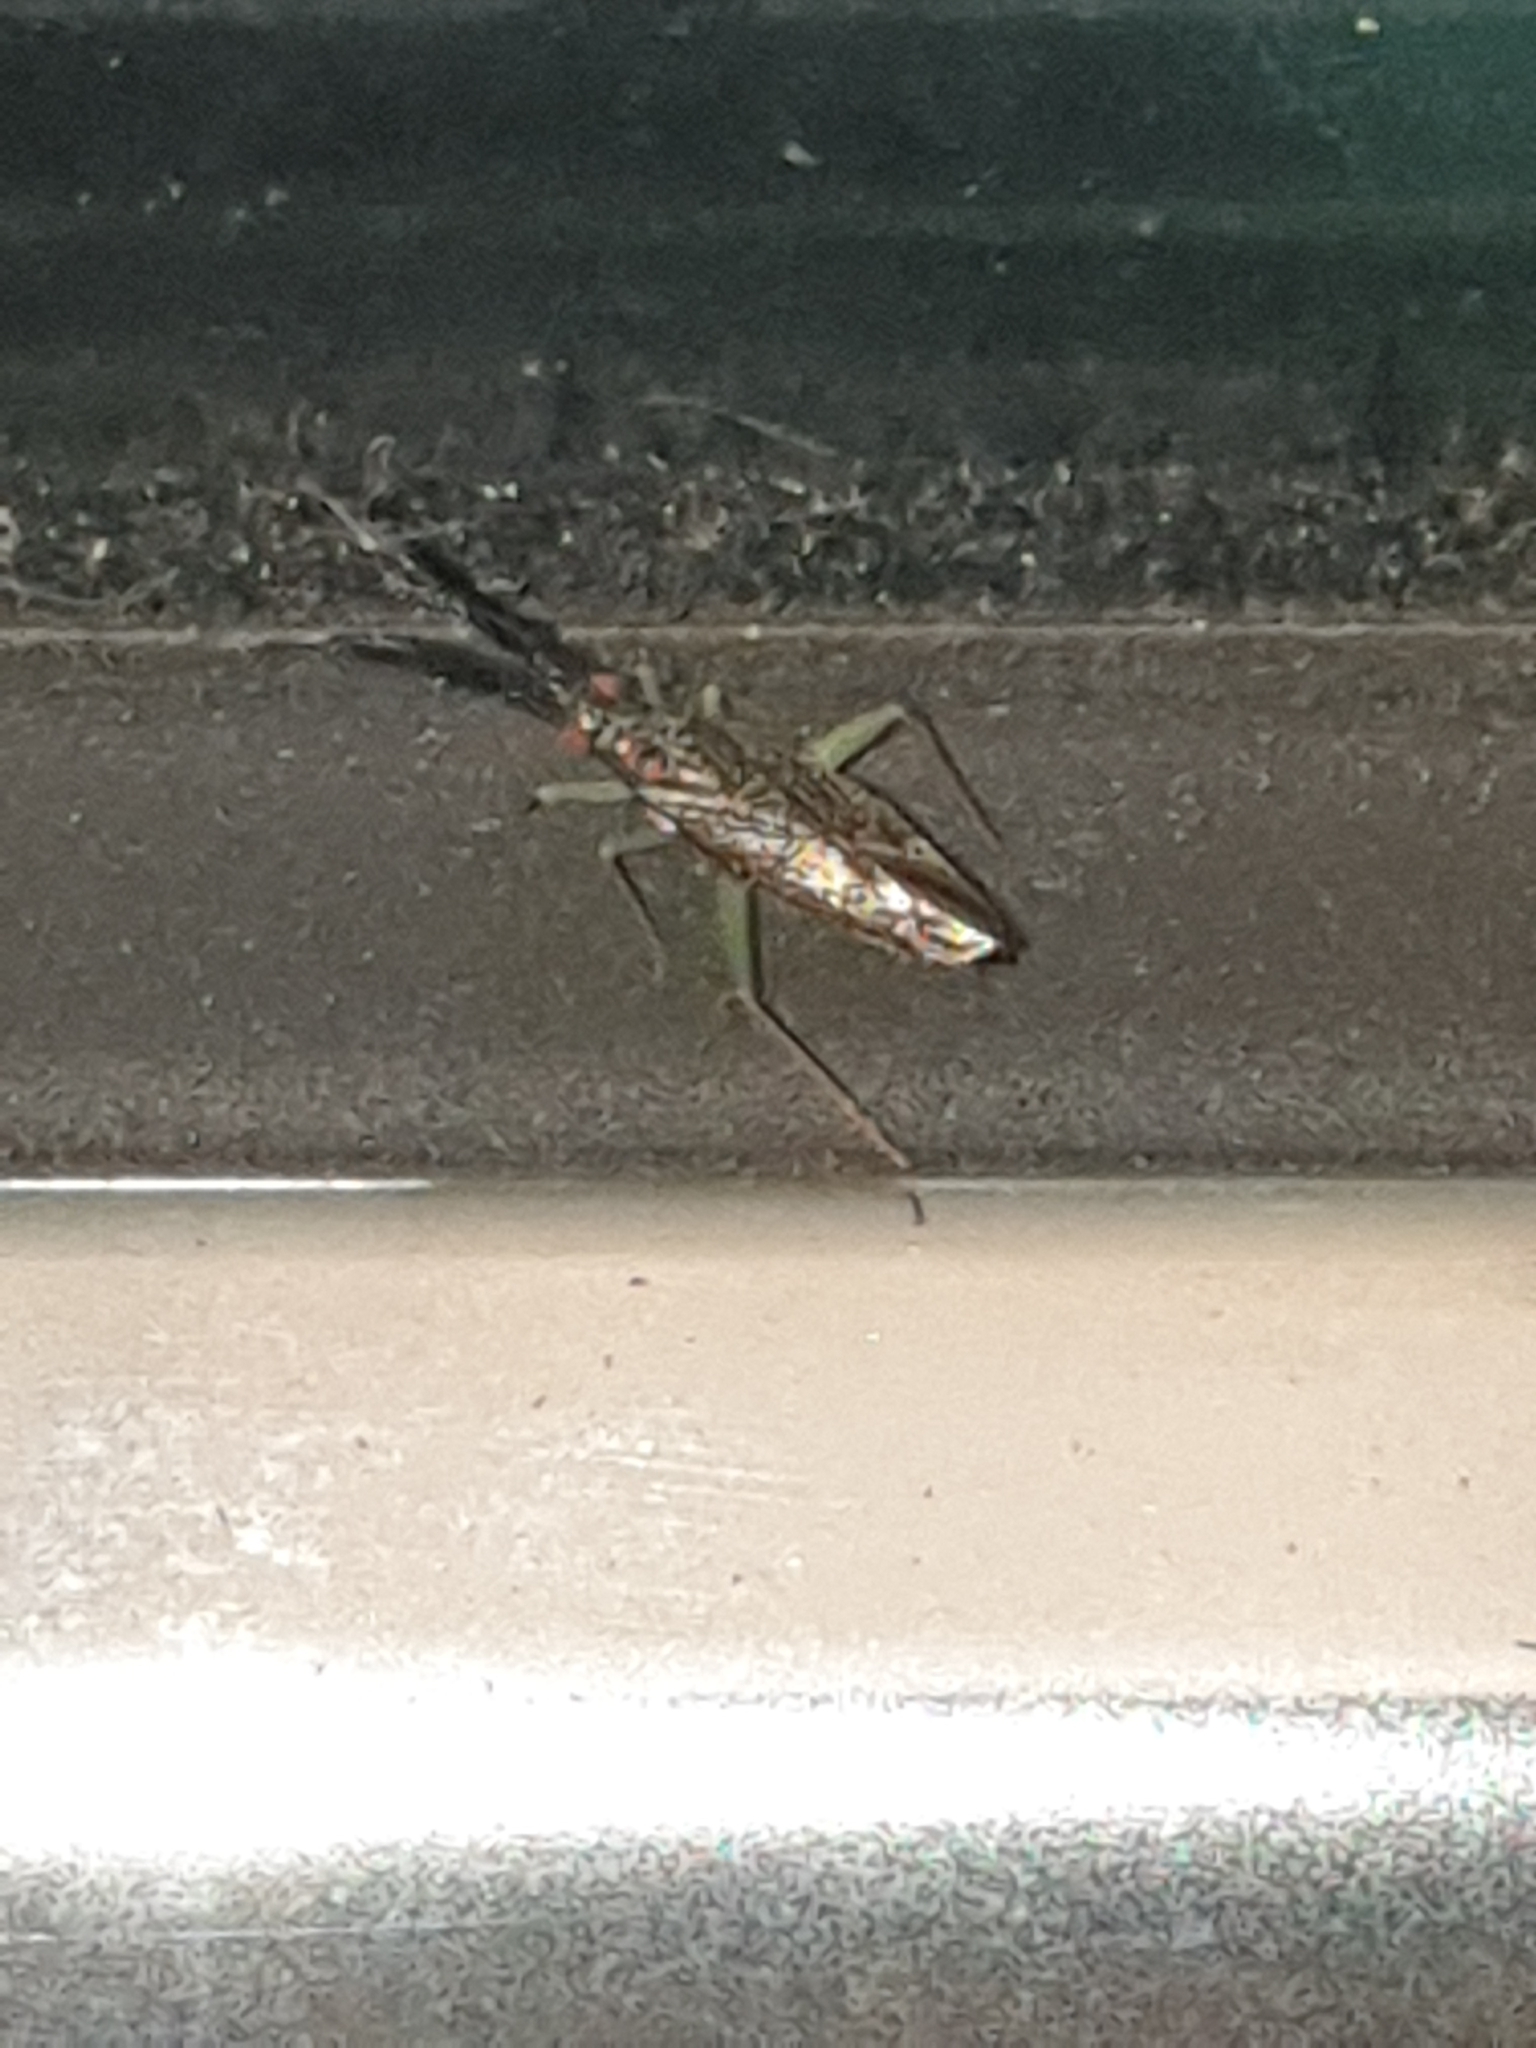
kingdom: Animalia
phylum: Arthropoda
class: Insecta
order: Hemiptera
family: Miridae
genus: Heterotoma
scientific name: Heterotoma planicornis
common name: Plant bug
